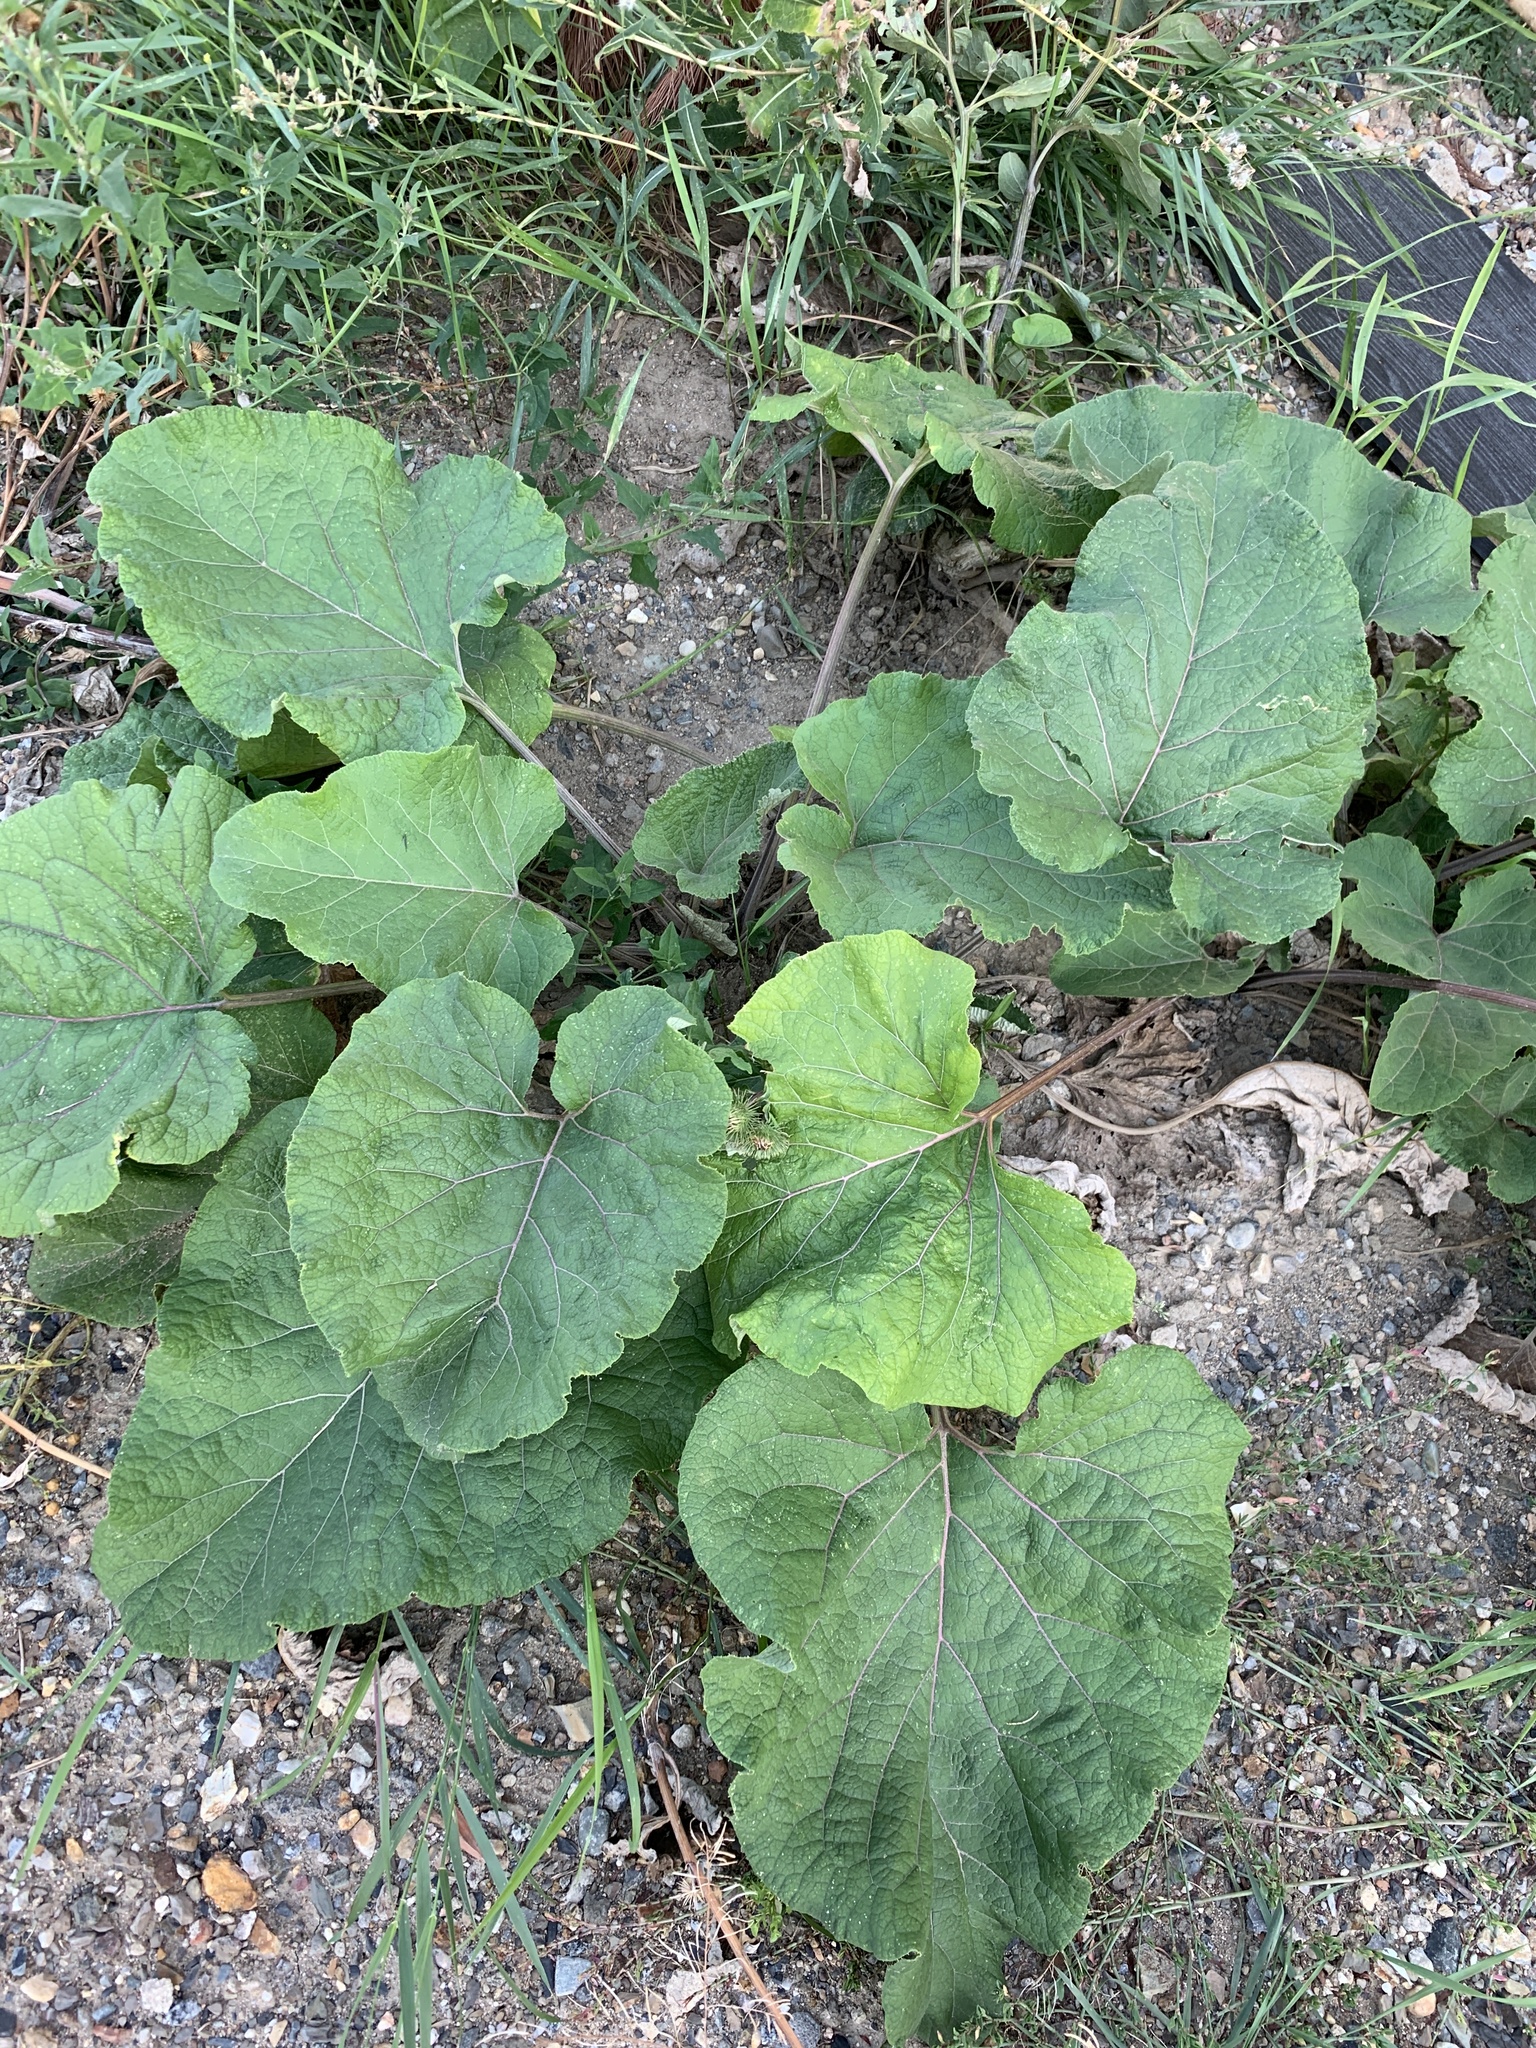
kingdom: Plantae
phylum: Tracheophyta
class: Magnoliopsida
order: Asterales
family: Asteraceae
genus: Arctium
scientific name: Arctium
